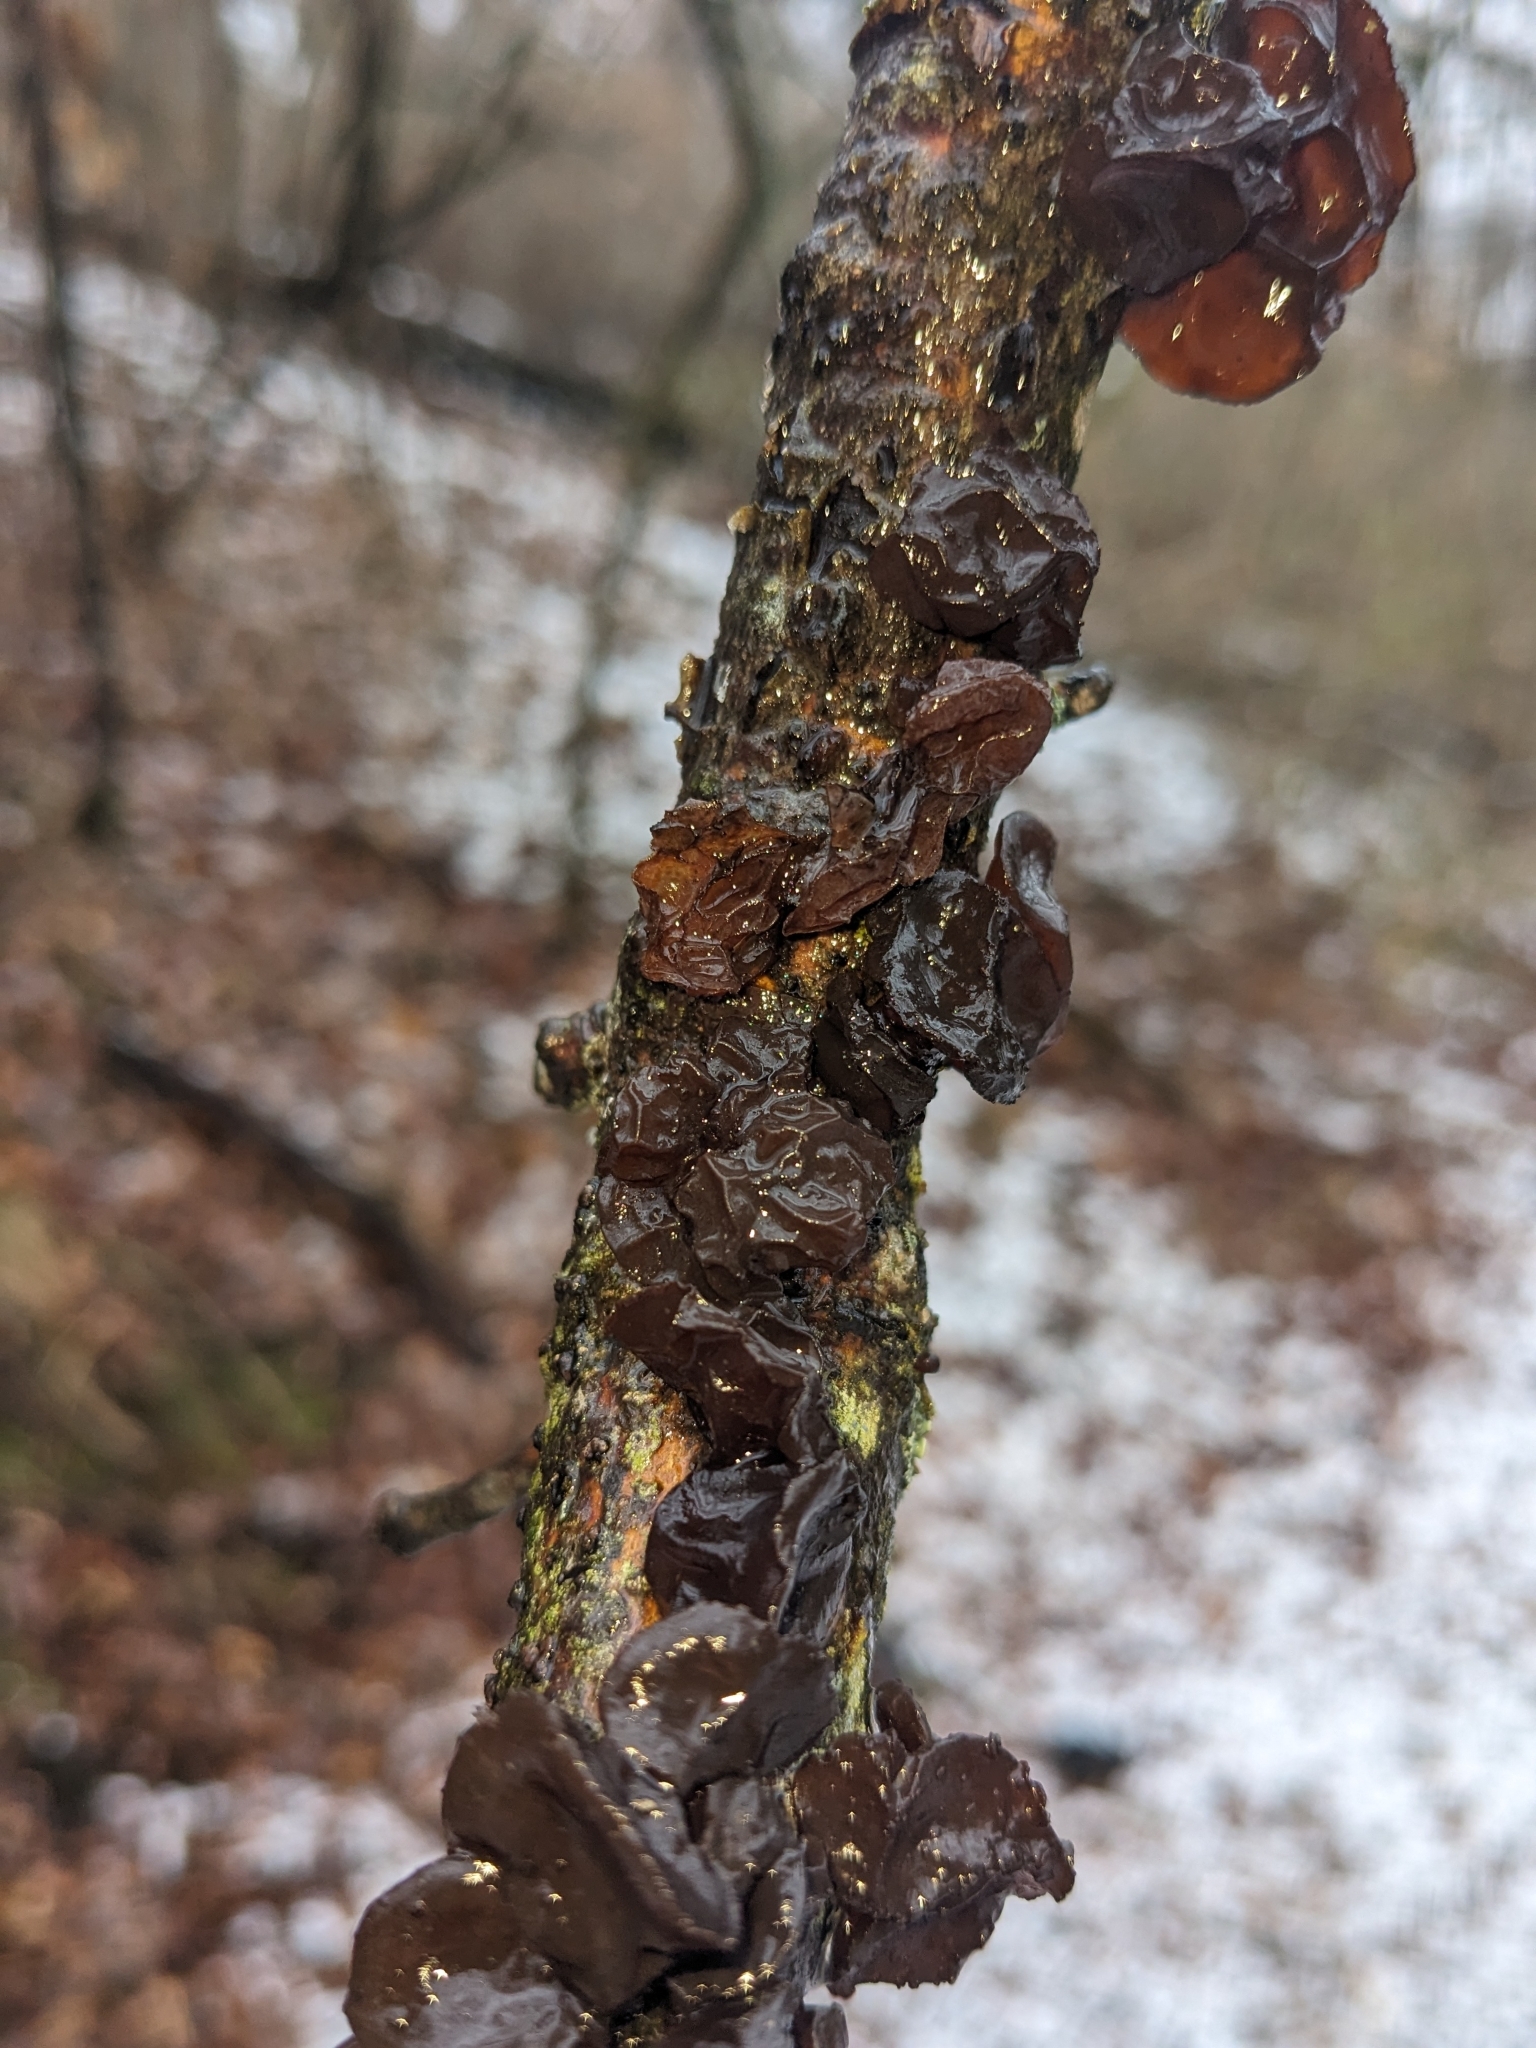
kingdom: Fungi
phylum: Basidiomycota
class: Agaricomycetes
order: Auriculariales
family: Auriculariaceae
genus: Exidia
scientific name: Exidia
